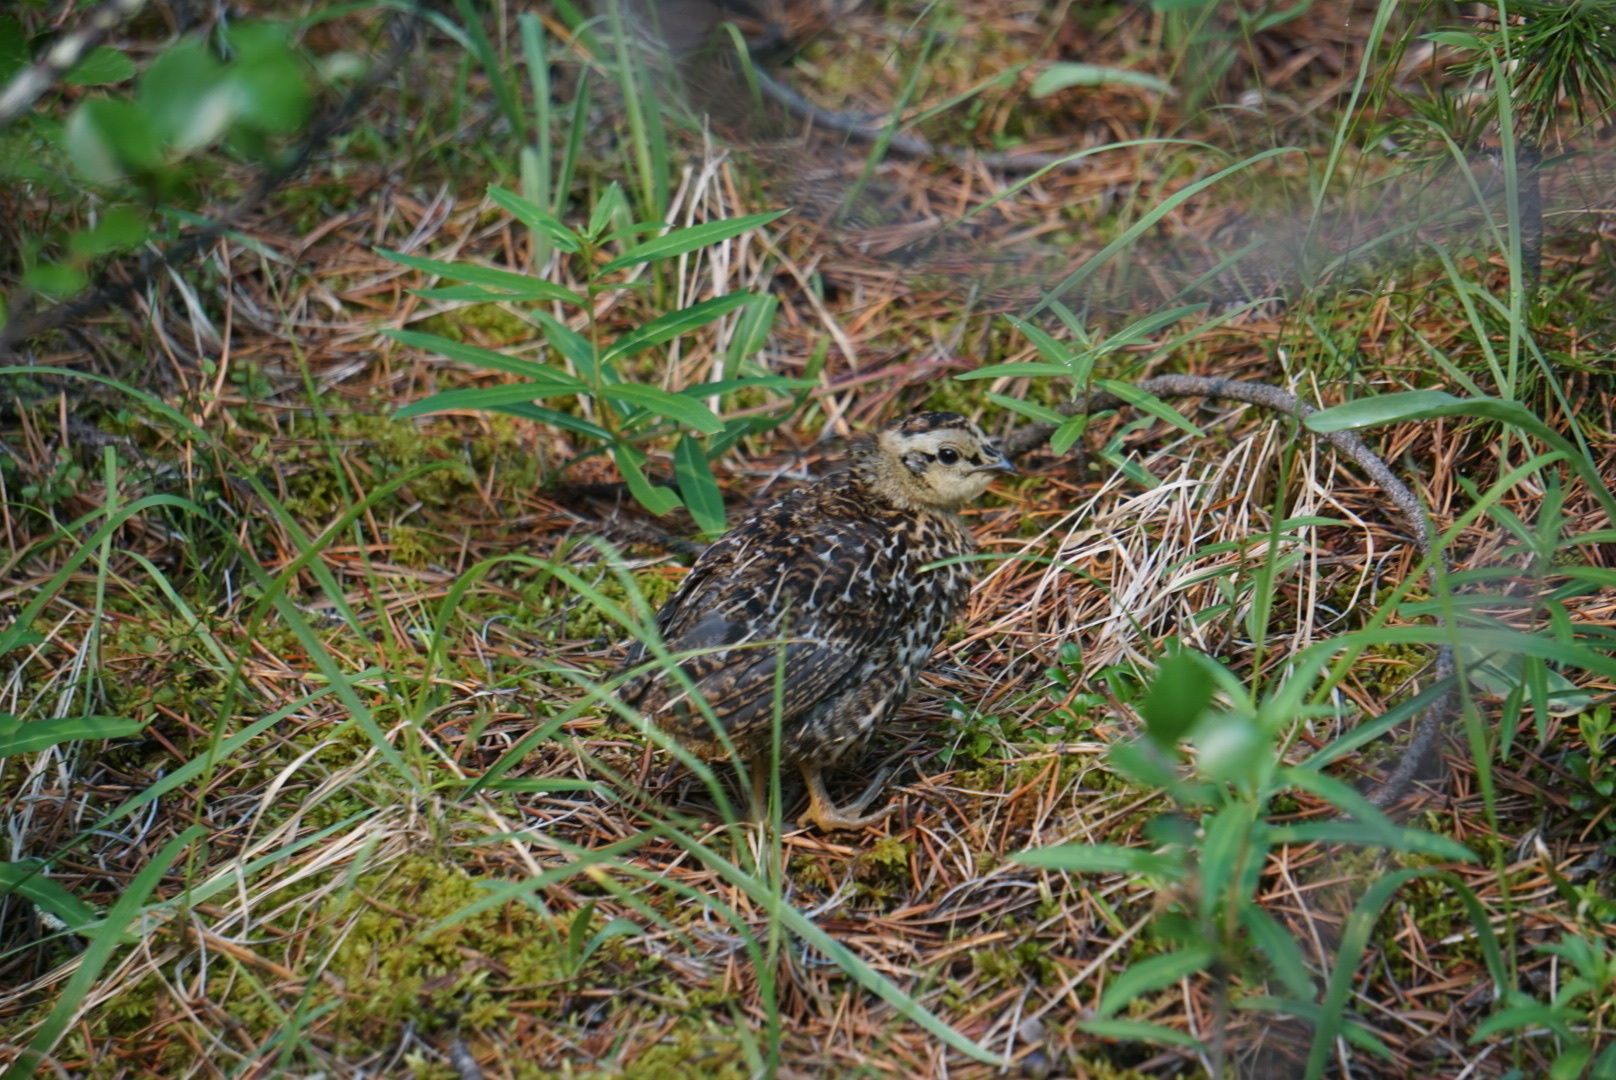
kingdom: Animalia
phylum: Chordata
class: Aves
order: Galliformes
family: Phasianidae
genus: Canachites
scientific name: Canachites canadensis
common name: Spruce grouse
